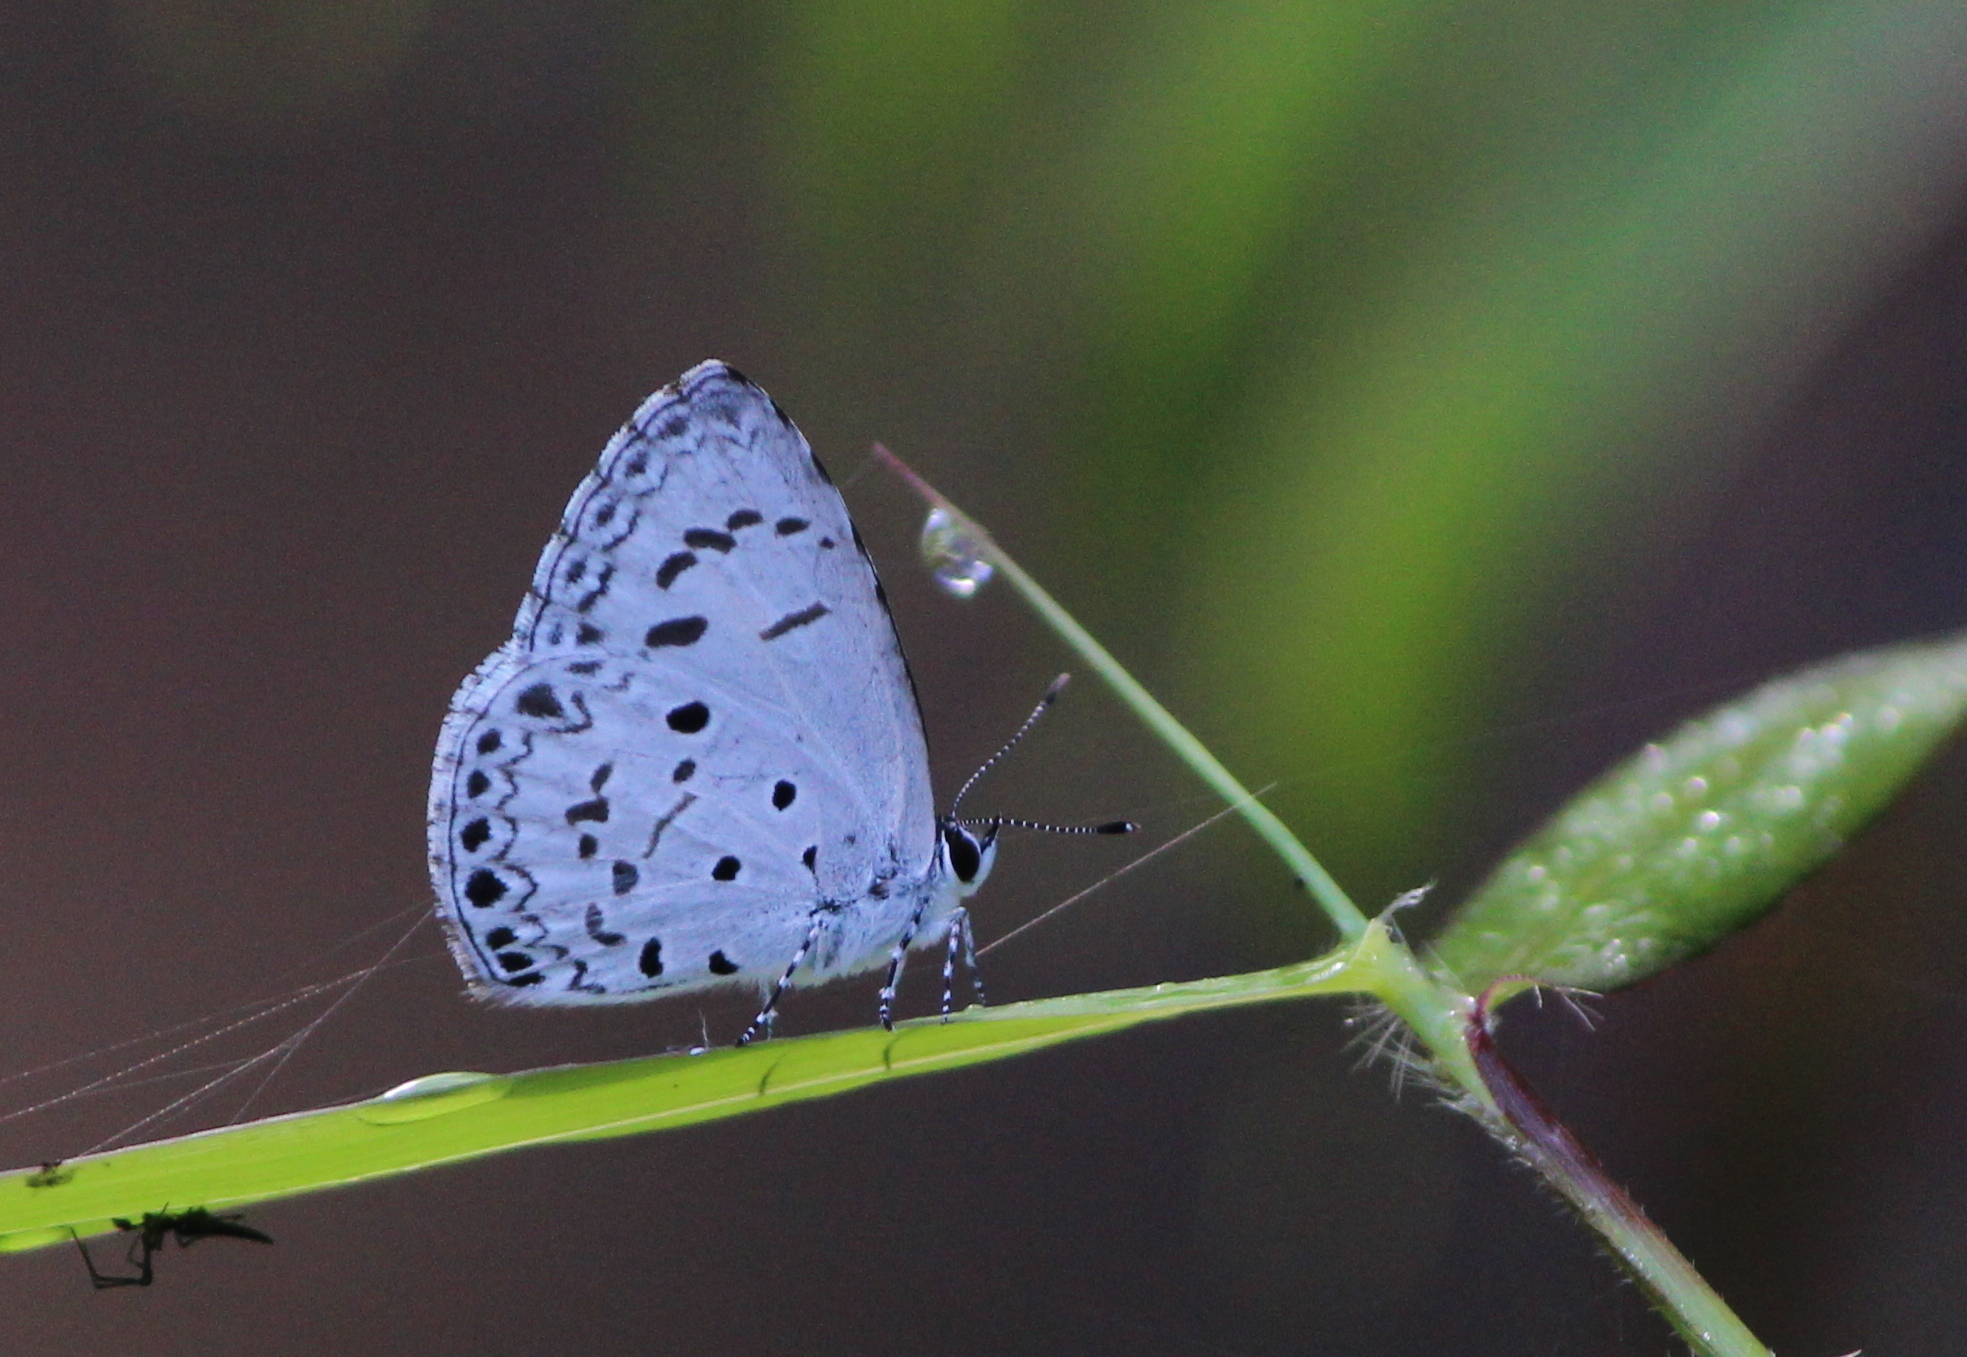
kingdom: Animalia
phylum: Arthropoda
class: Insecta
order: Lepidoptera
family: Lycaenidae
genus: Acytolepis
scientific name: Acytolepis puspa
